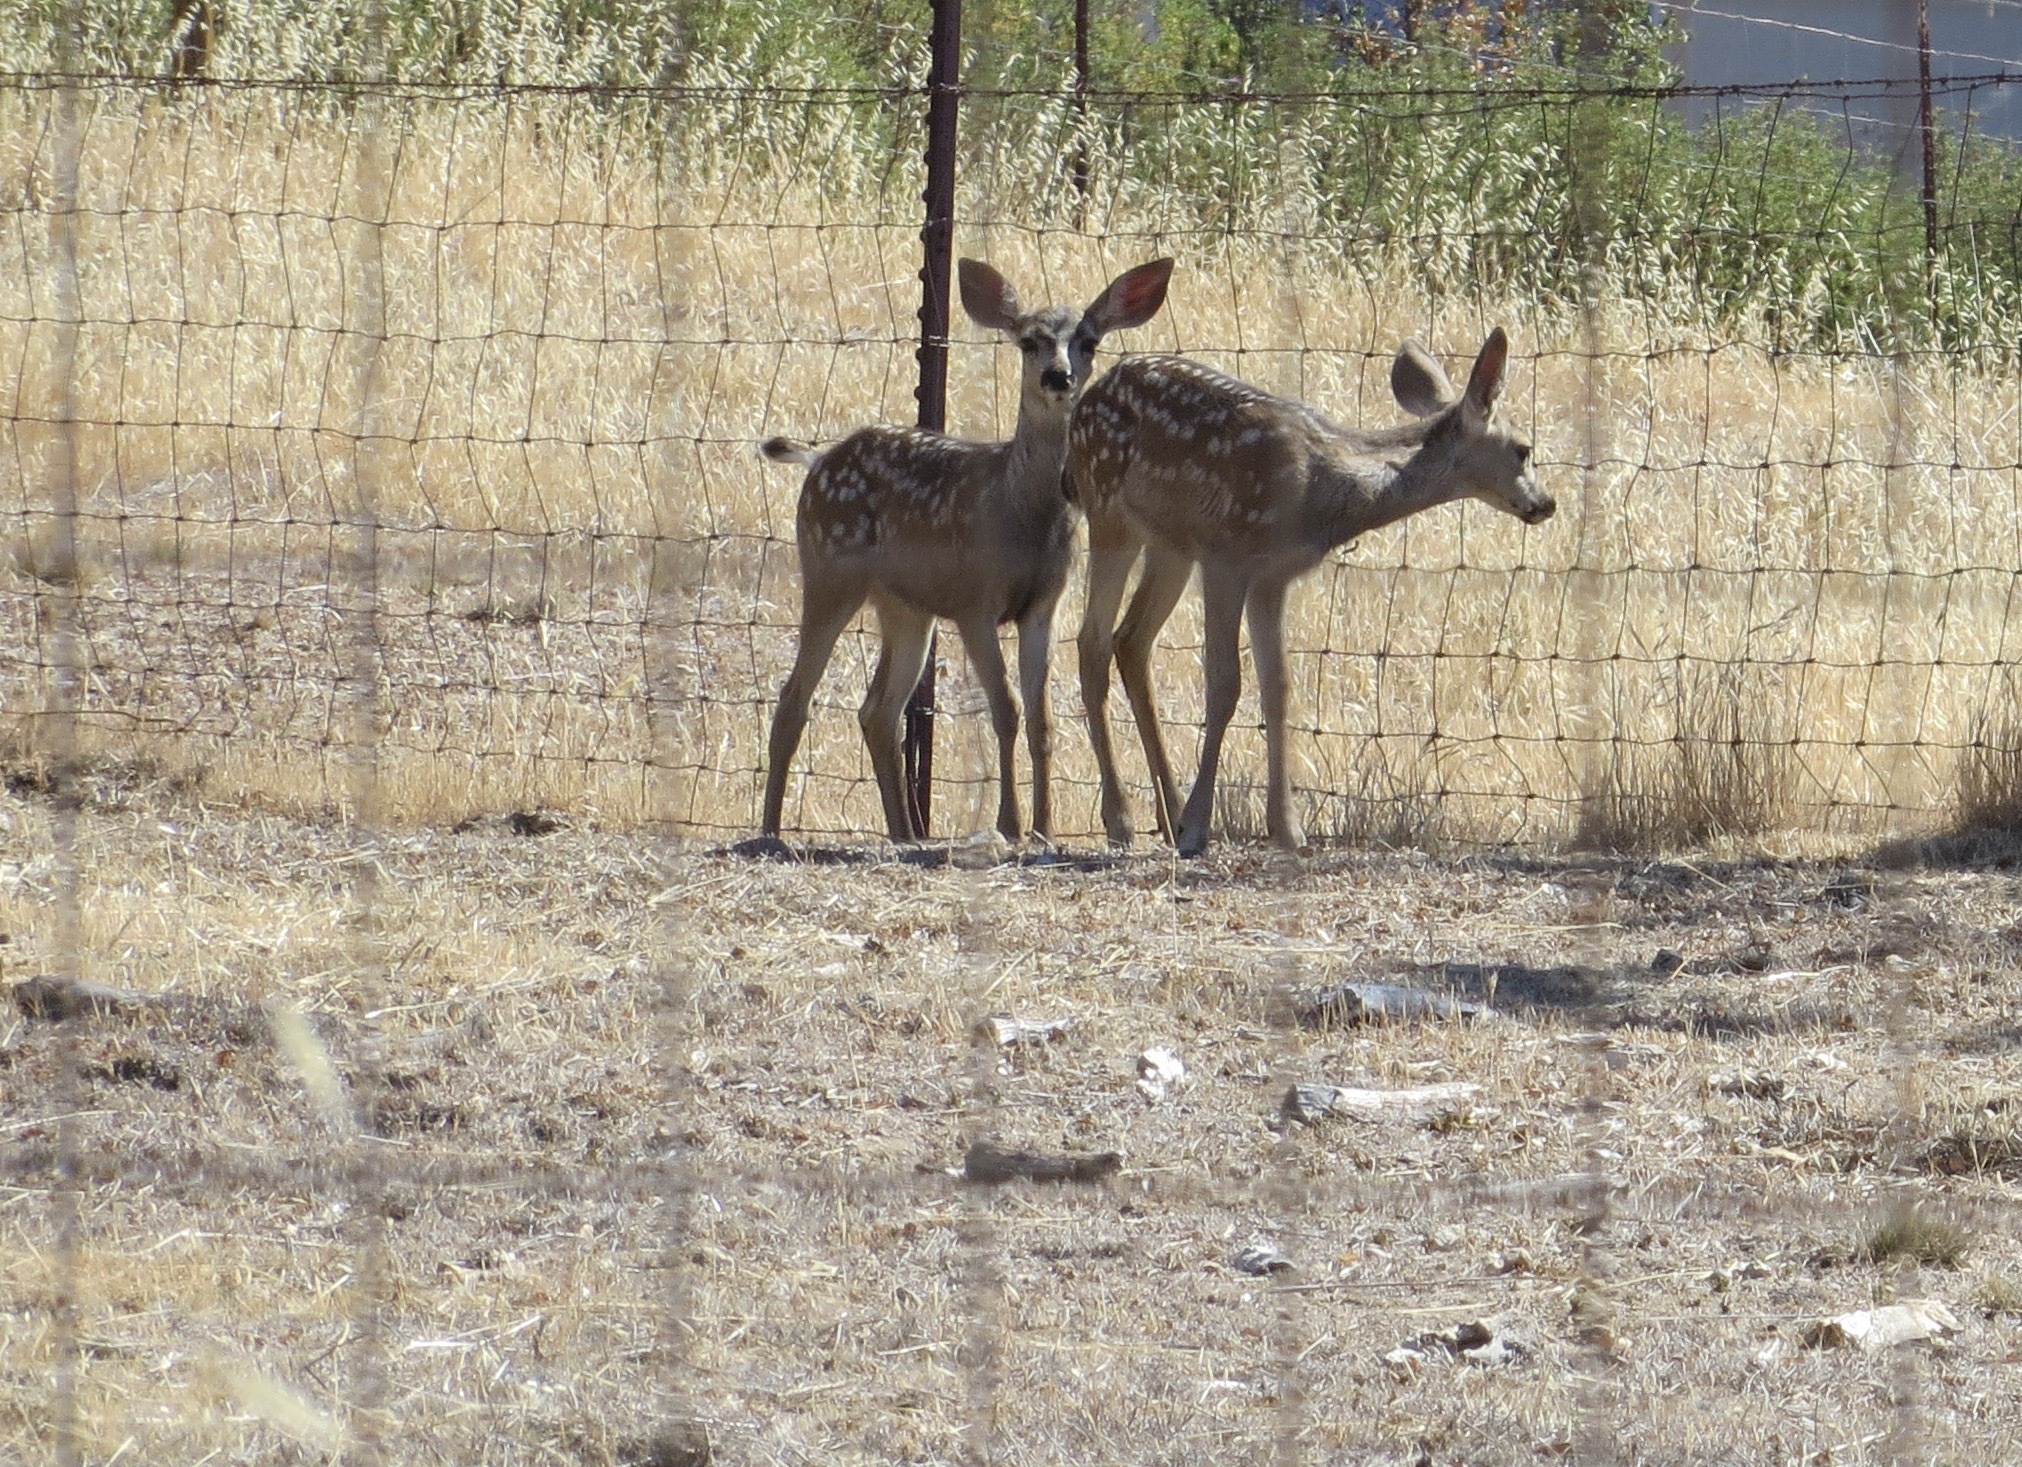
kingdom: Animalia
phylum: Chordata
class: Mammalia
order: Artiodactyla
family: Cervidae
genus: Odocoileus
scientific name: Odocoileus hemionus
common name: Mule deer
